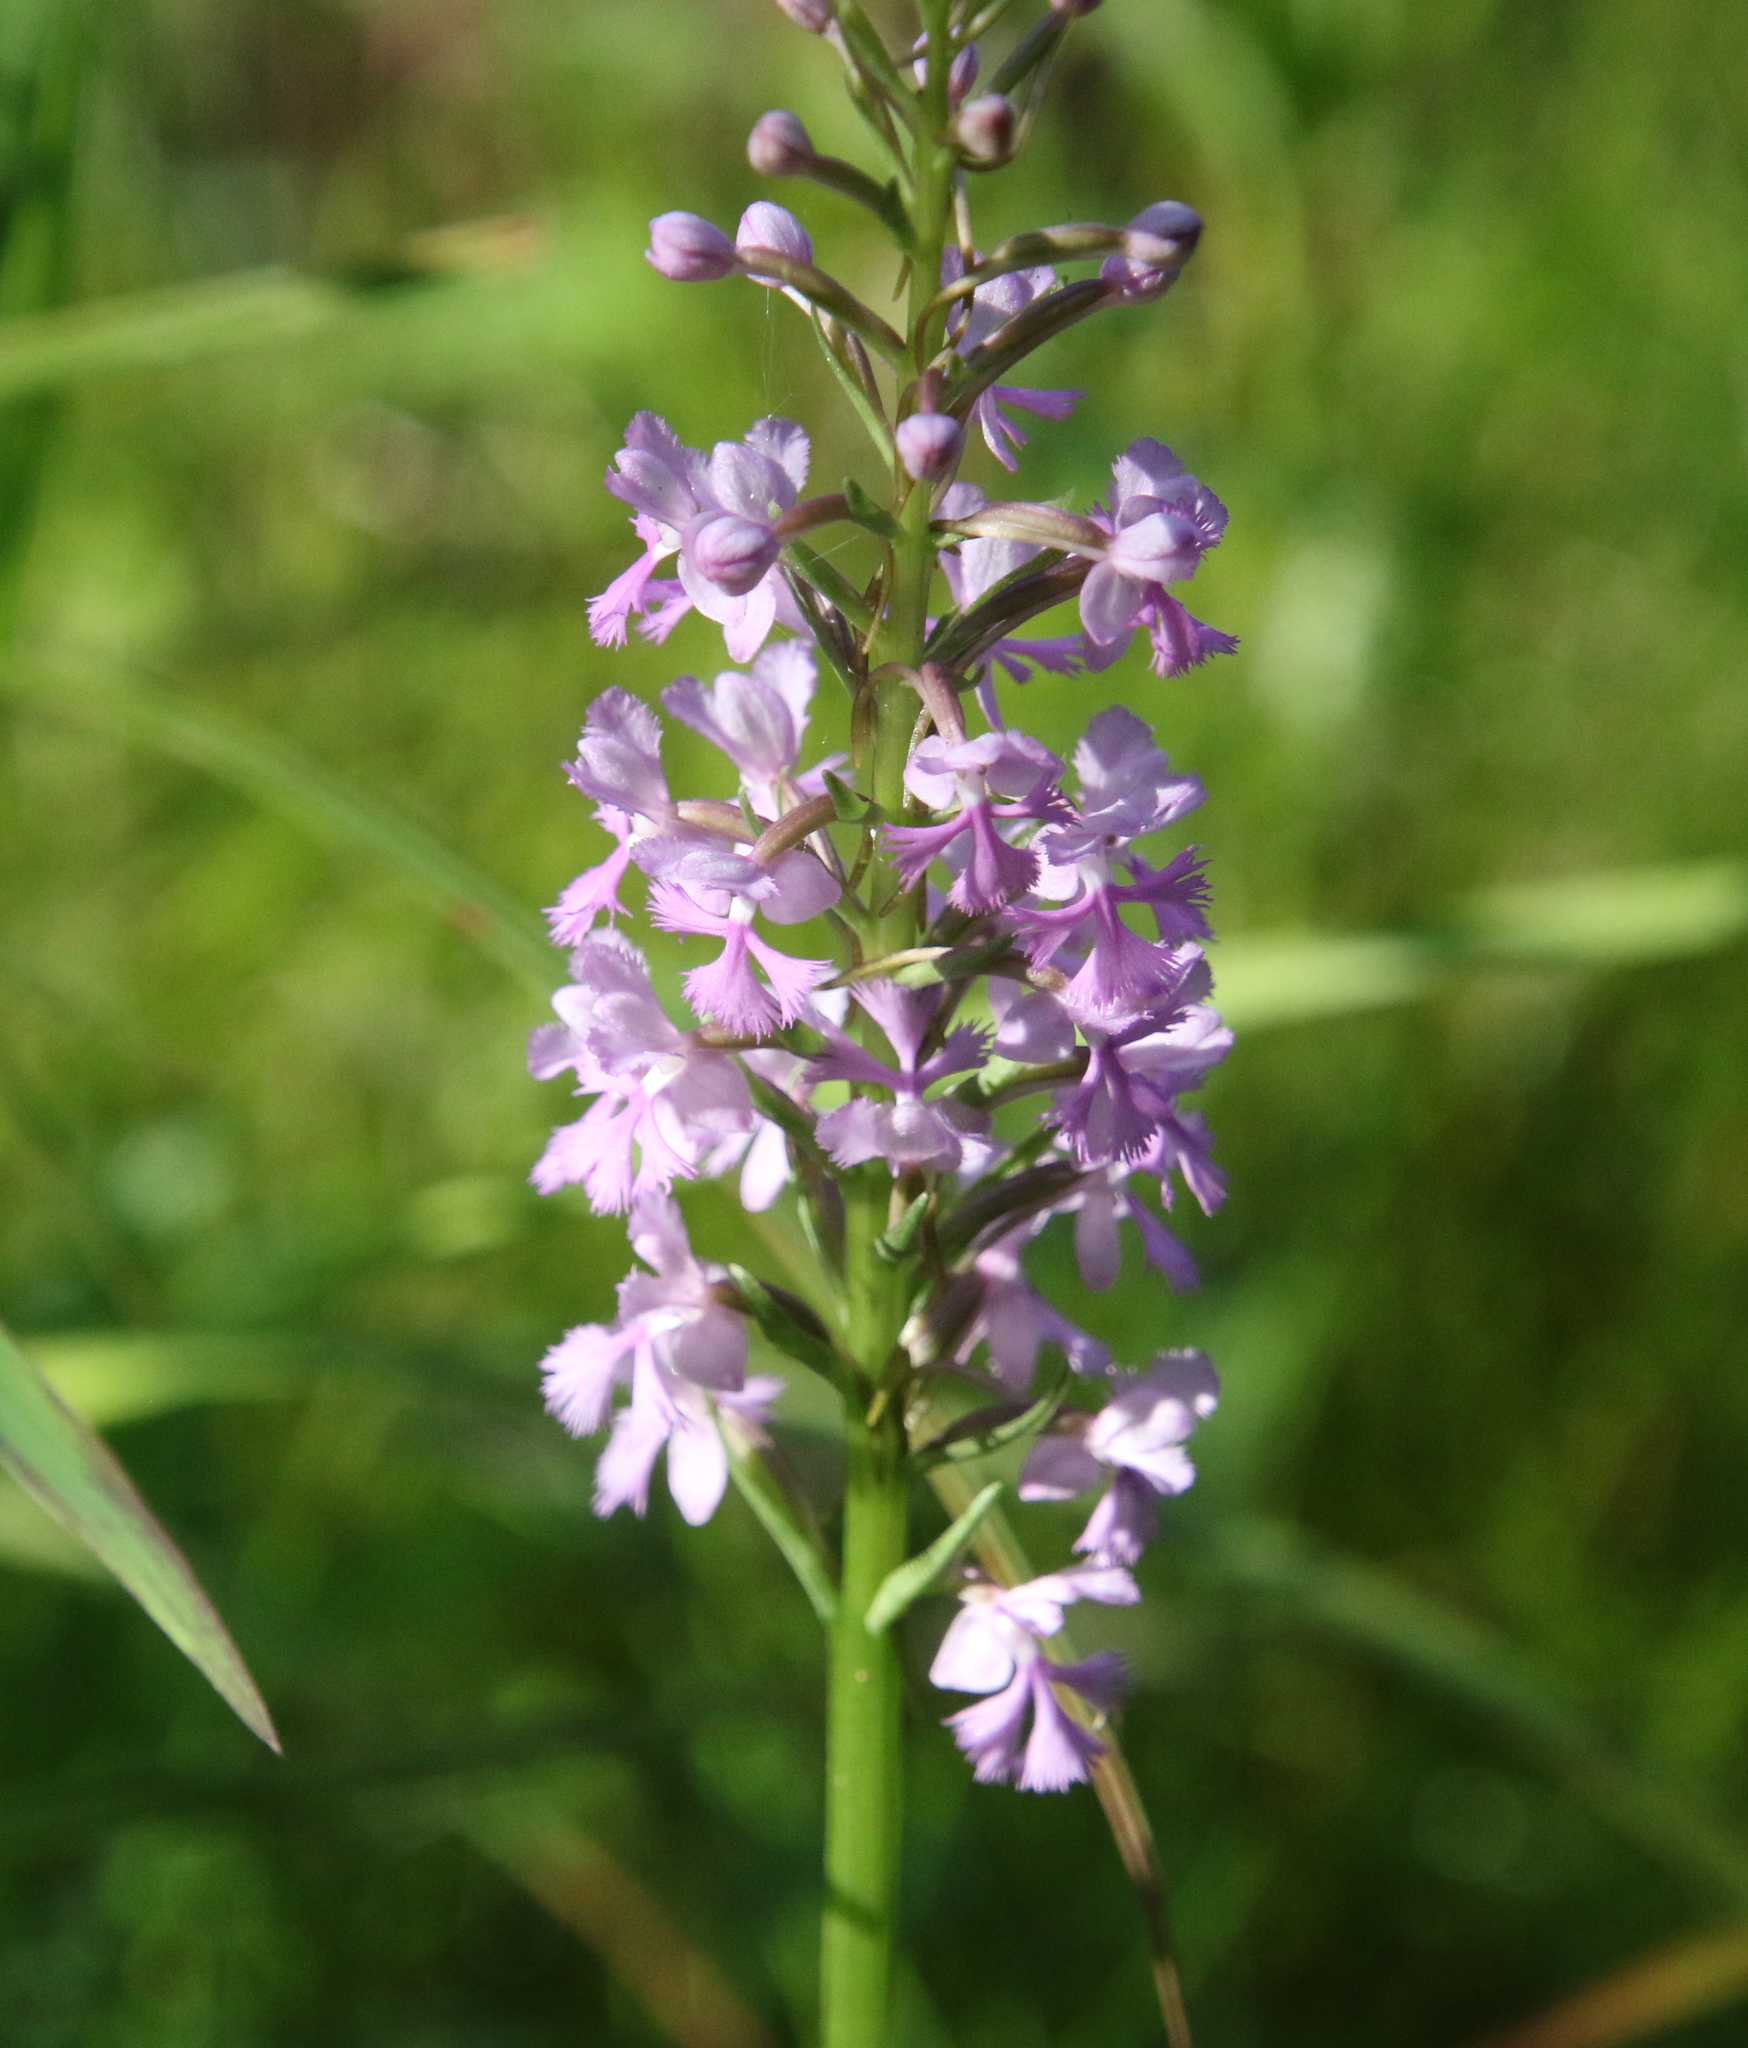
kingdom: Plantae
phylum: Tracheophyta
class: Liliopsida
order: Asparagales
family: Orchidaceae
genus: Platanthera
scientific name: Platanthera psycodes
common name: Lesser purple fringed orchid
